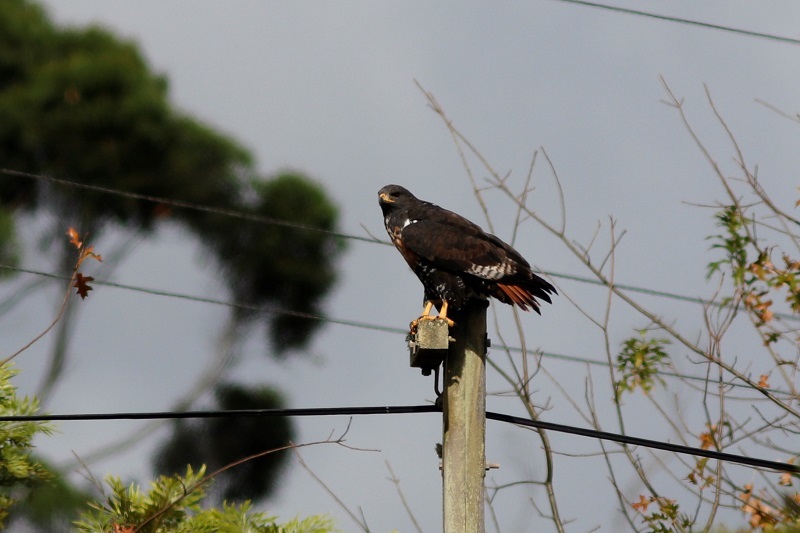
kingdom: Animalia
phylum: Chordata
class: Aves
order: Accipitriformes
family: Accipitridae
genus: Buteo
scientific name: Buteo rufofuscus
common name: Jackal buzzard
